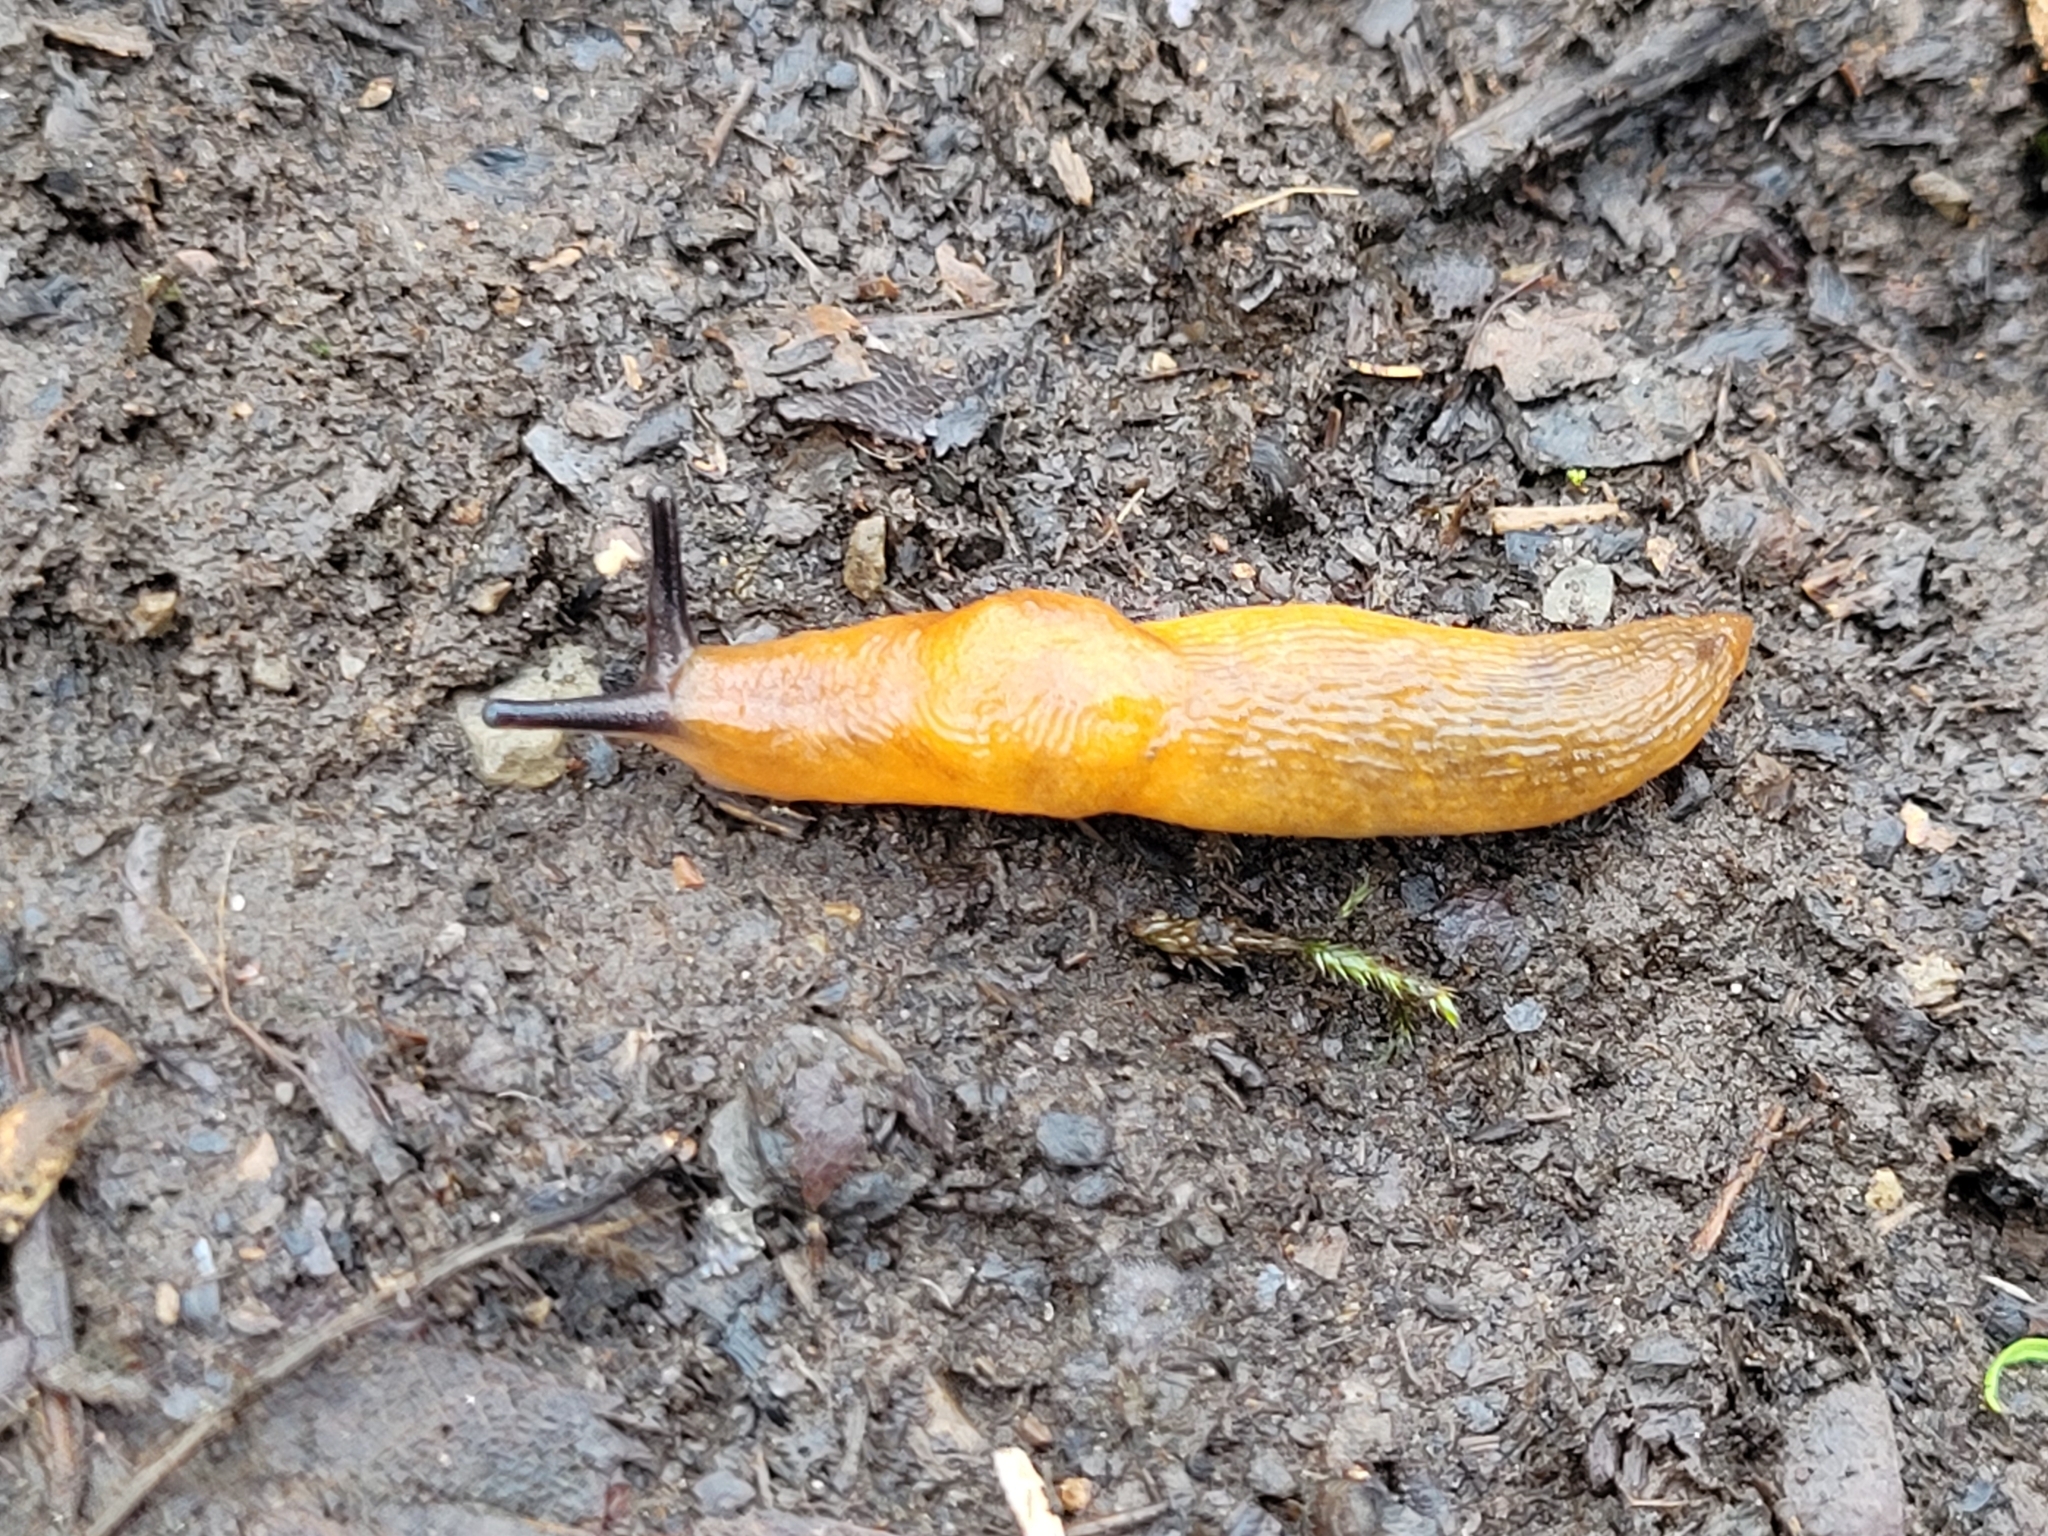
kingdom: Animalia
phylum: Mollusca
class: Gastropoda
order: Stylommatophora
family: Limacidae
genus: Malacolimax
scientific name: Malacolimax tenellus
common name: Lemon slug
